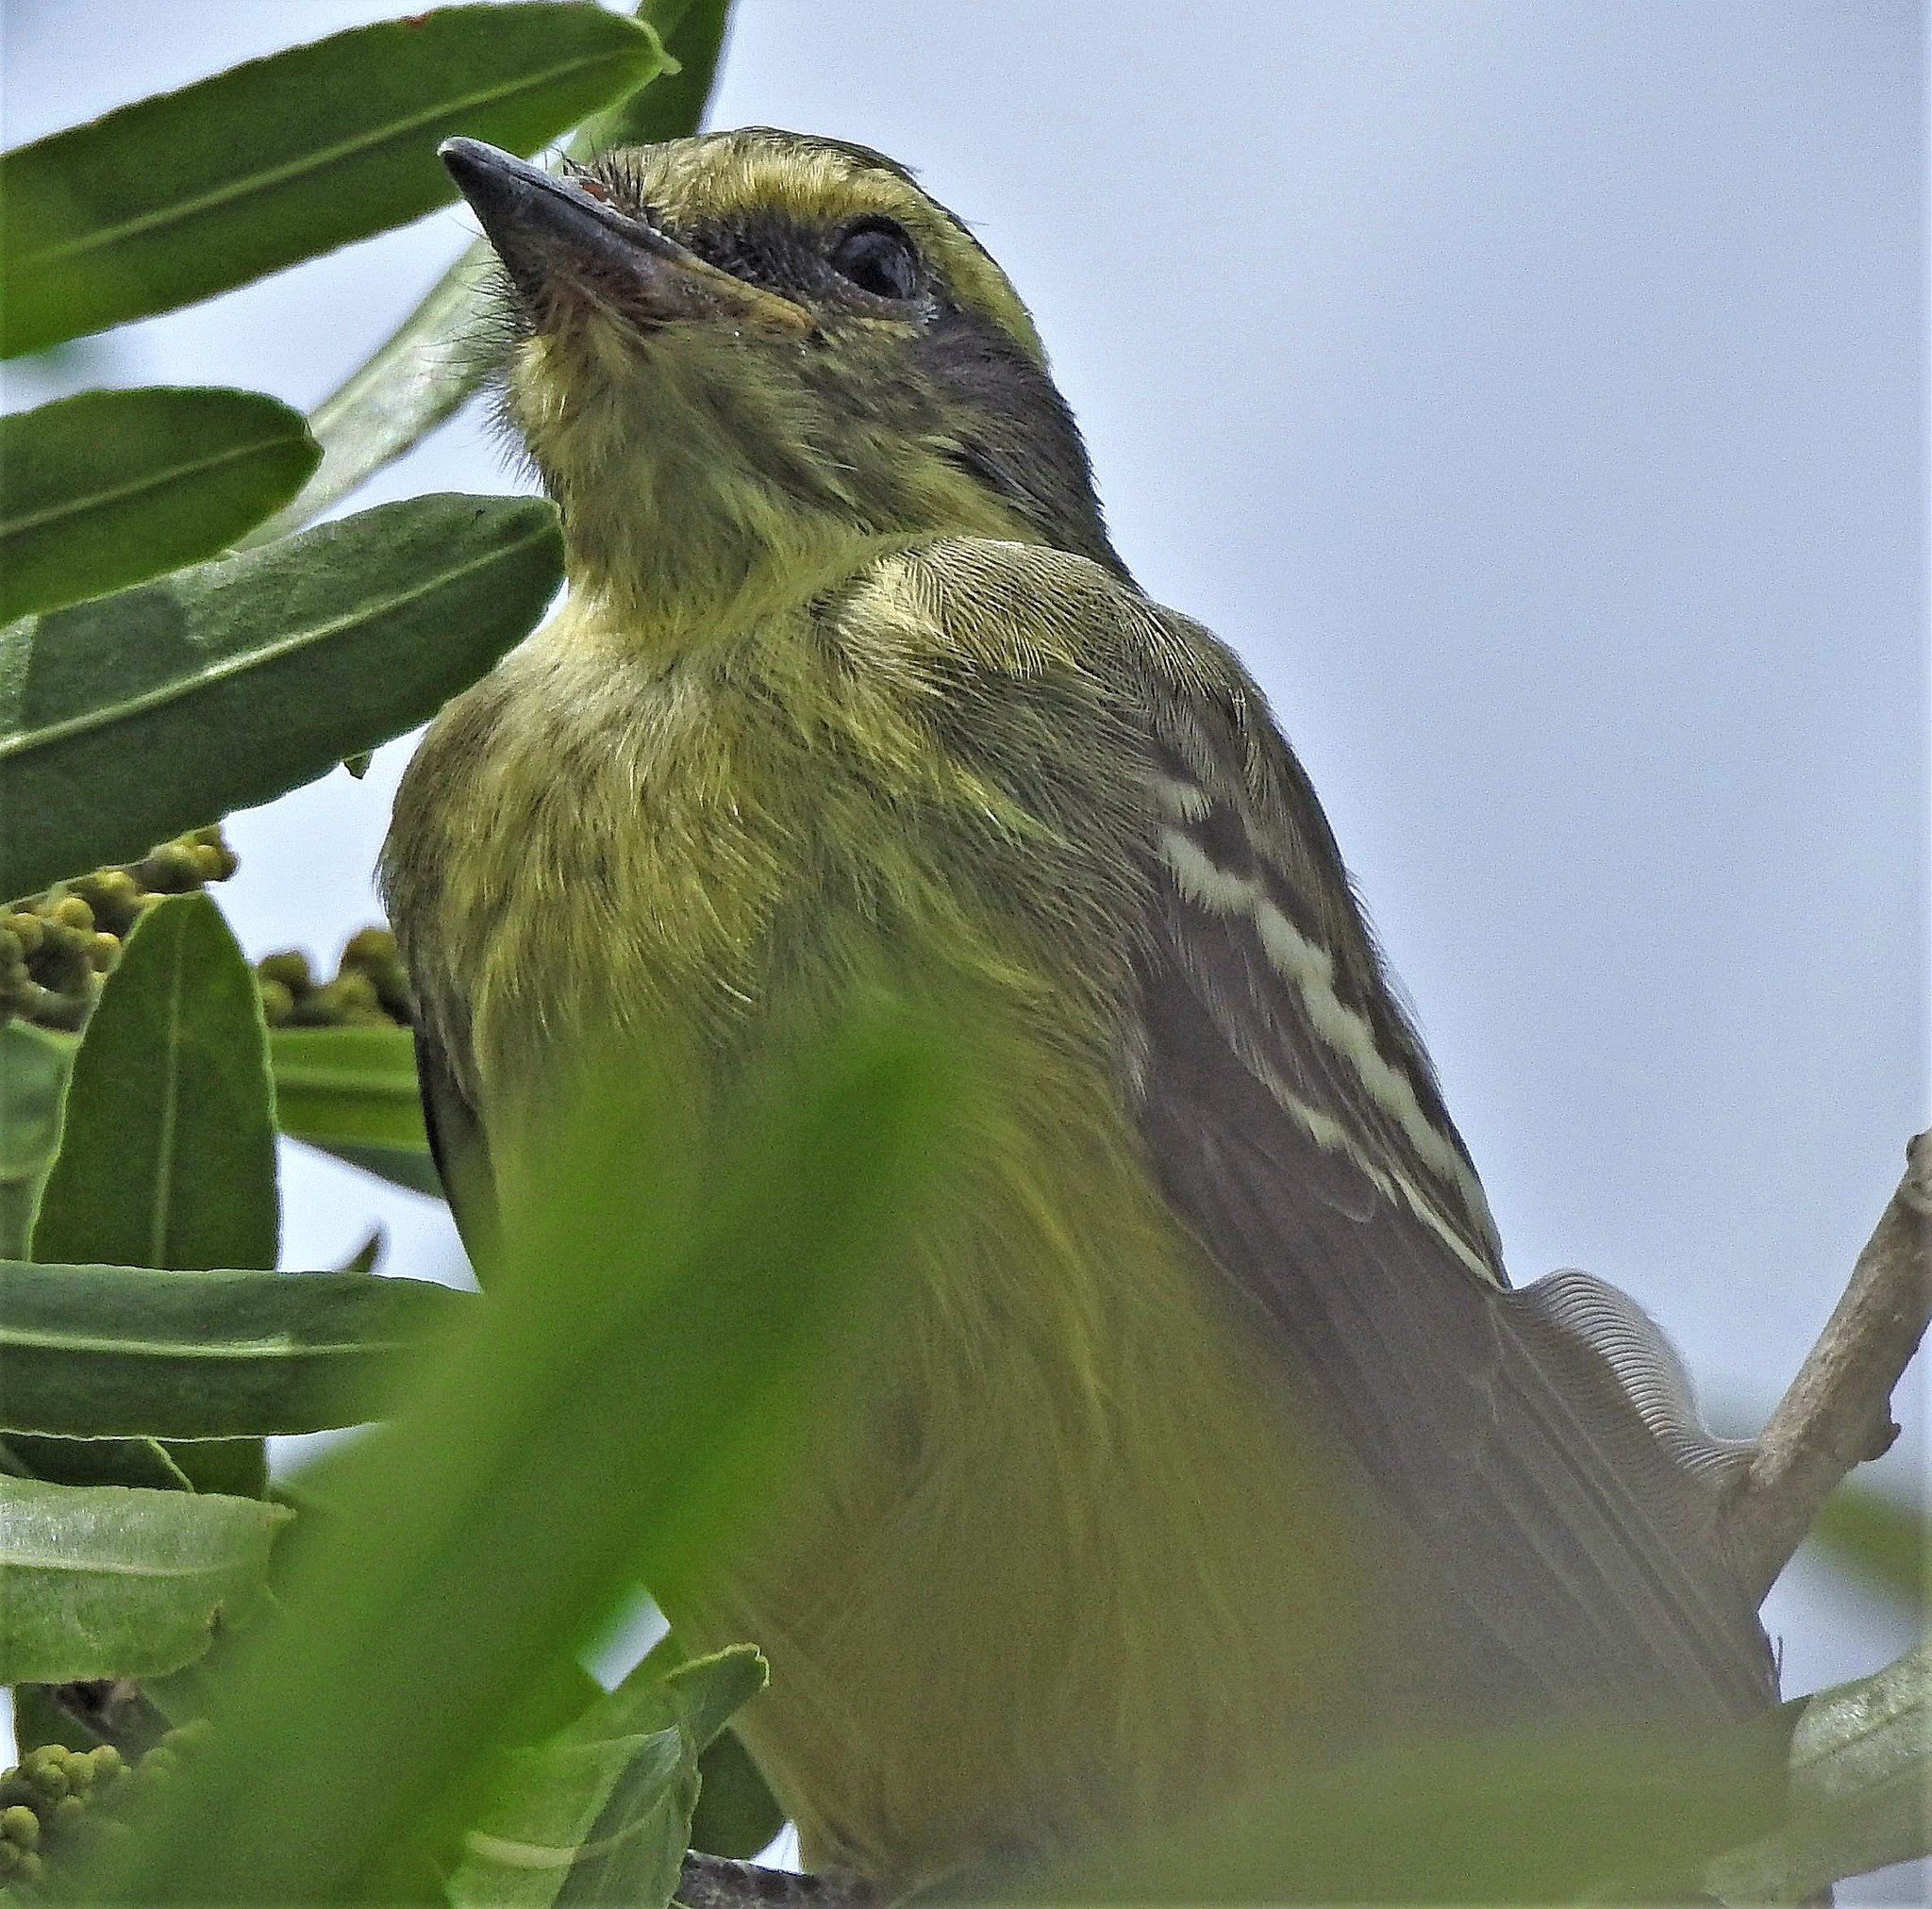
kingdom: Animalia
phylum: Chordata
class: Aves
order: Passeriformes
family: Tyrannidae
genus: Satrapa
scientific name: Satrapa icterophrys
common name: Yellow-browed tyrant
